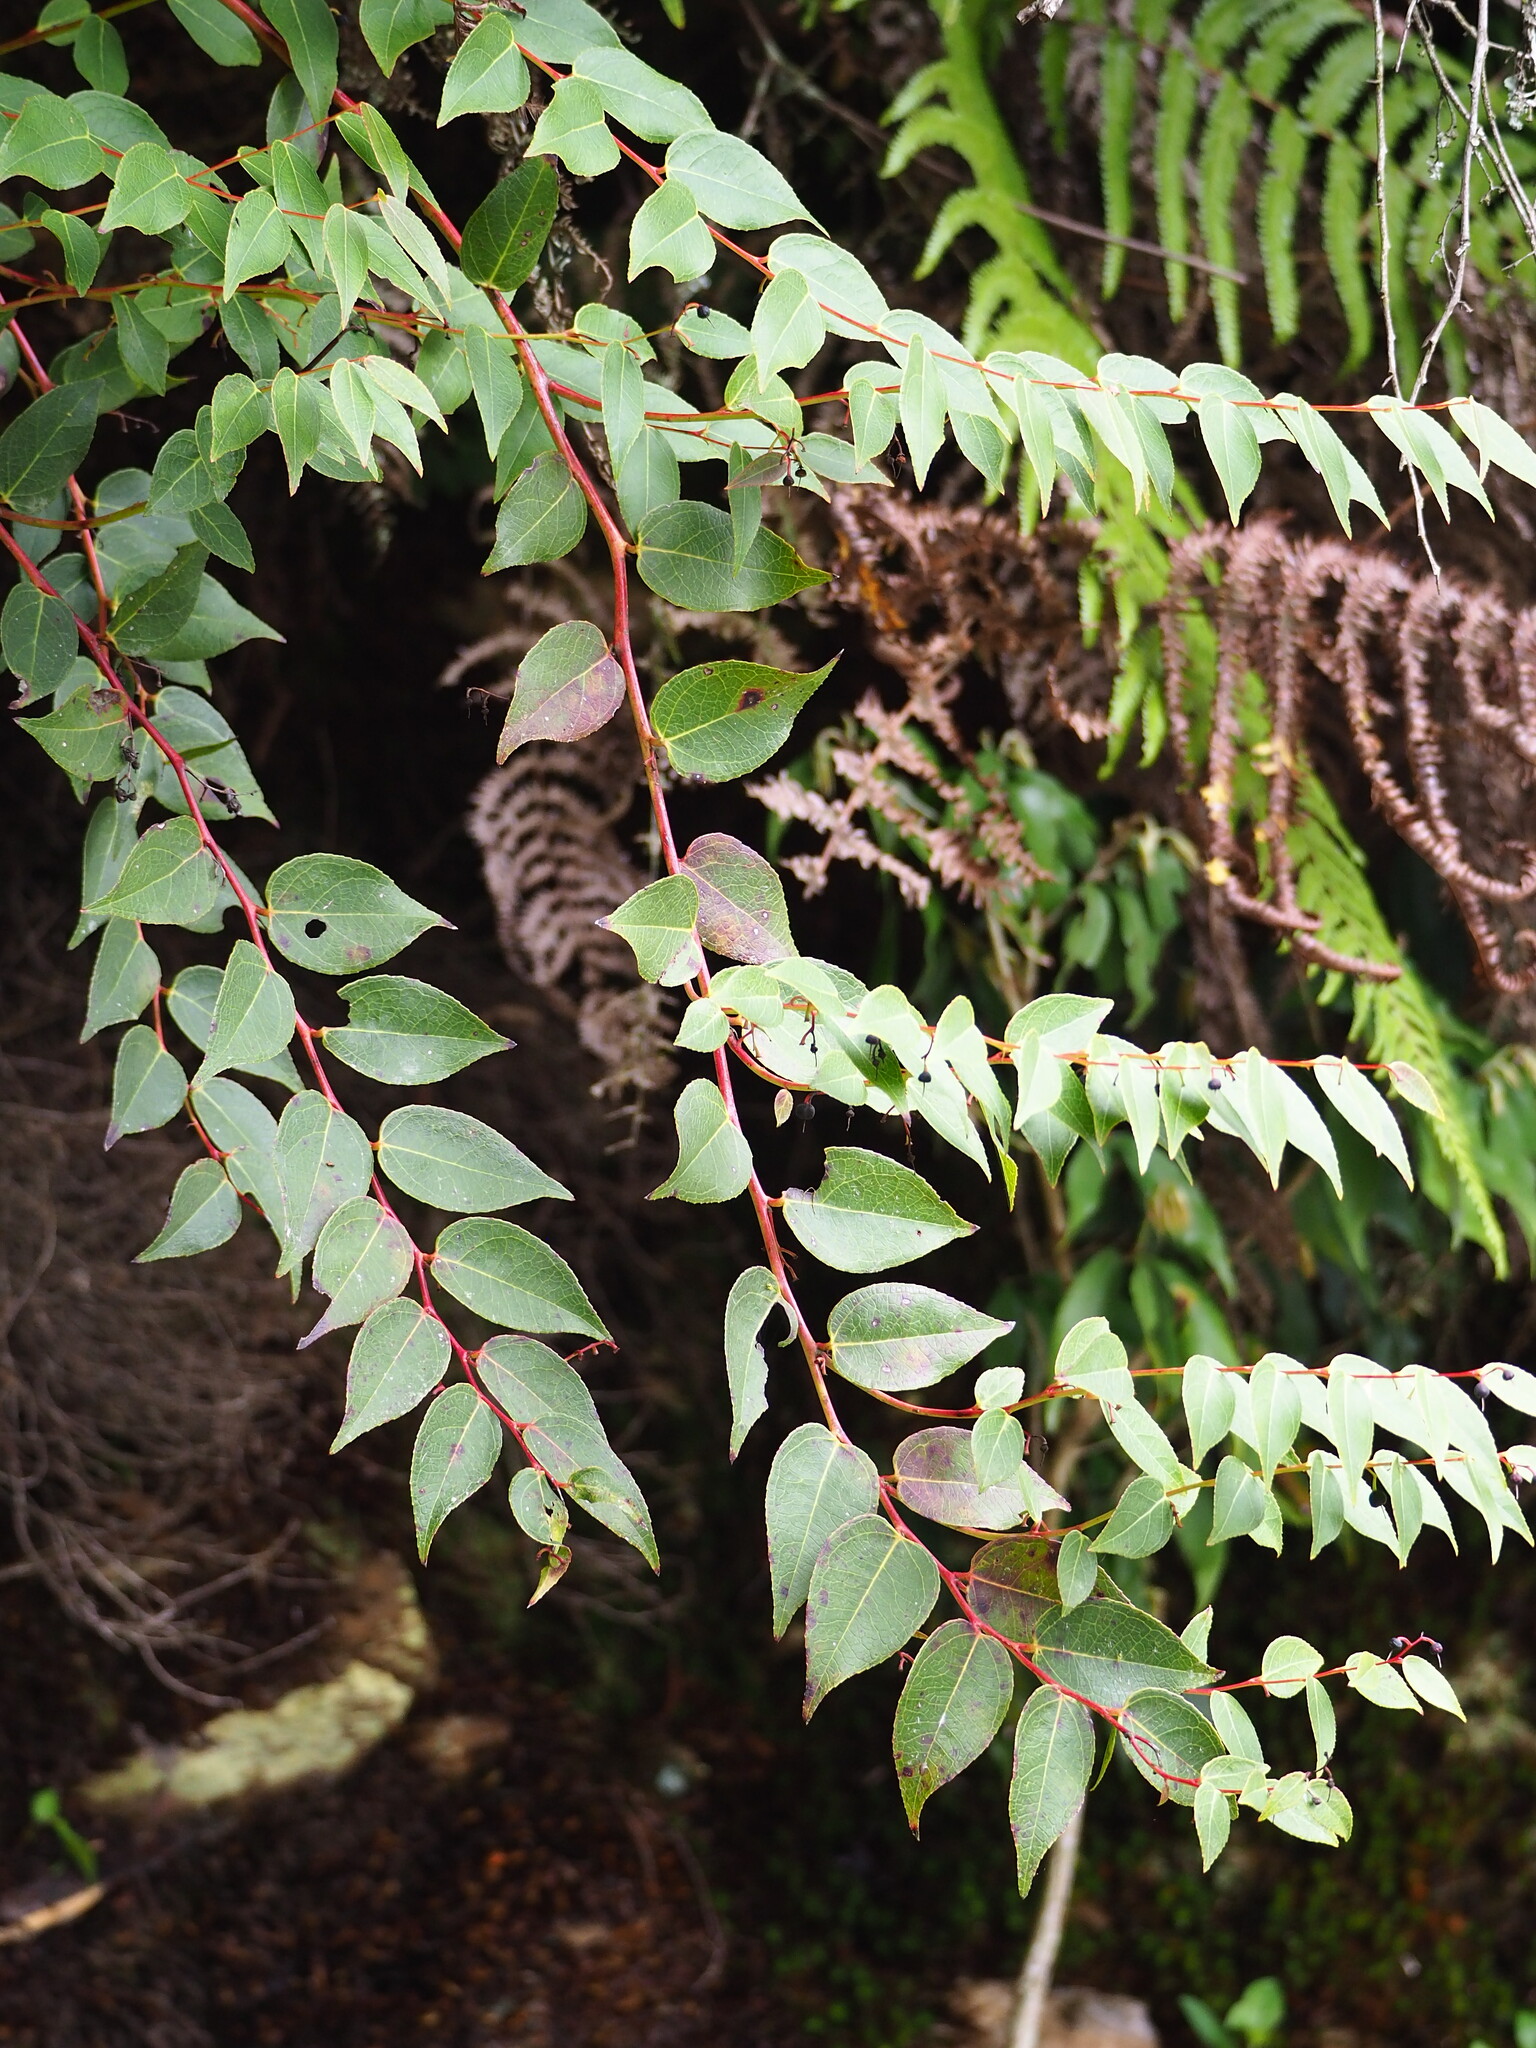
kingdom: Plantae
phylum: Tracheophyta
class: Magnoliopsida
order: Ericales
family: Ericaceae
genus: Gaultheria
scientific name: Gaultheria leucocarpa
